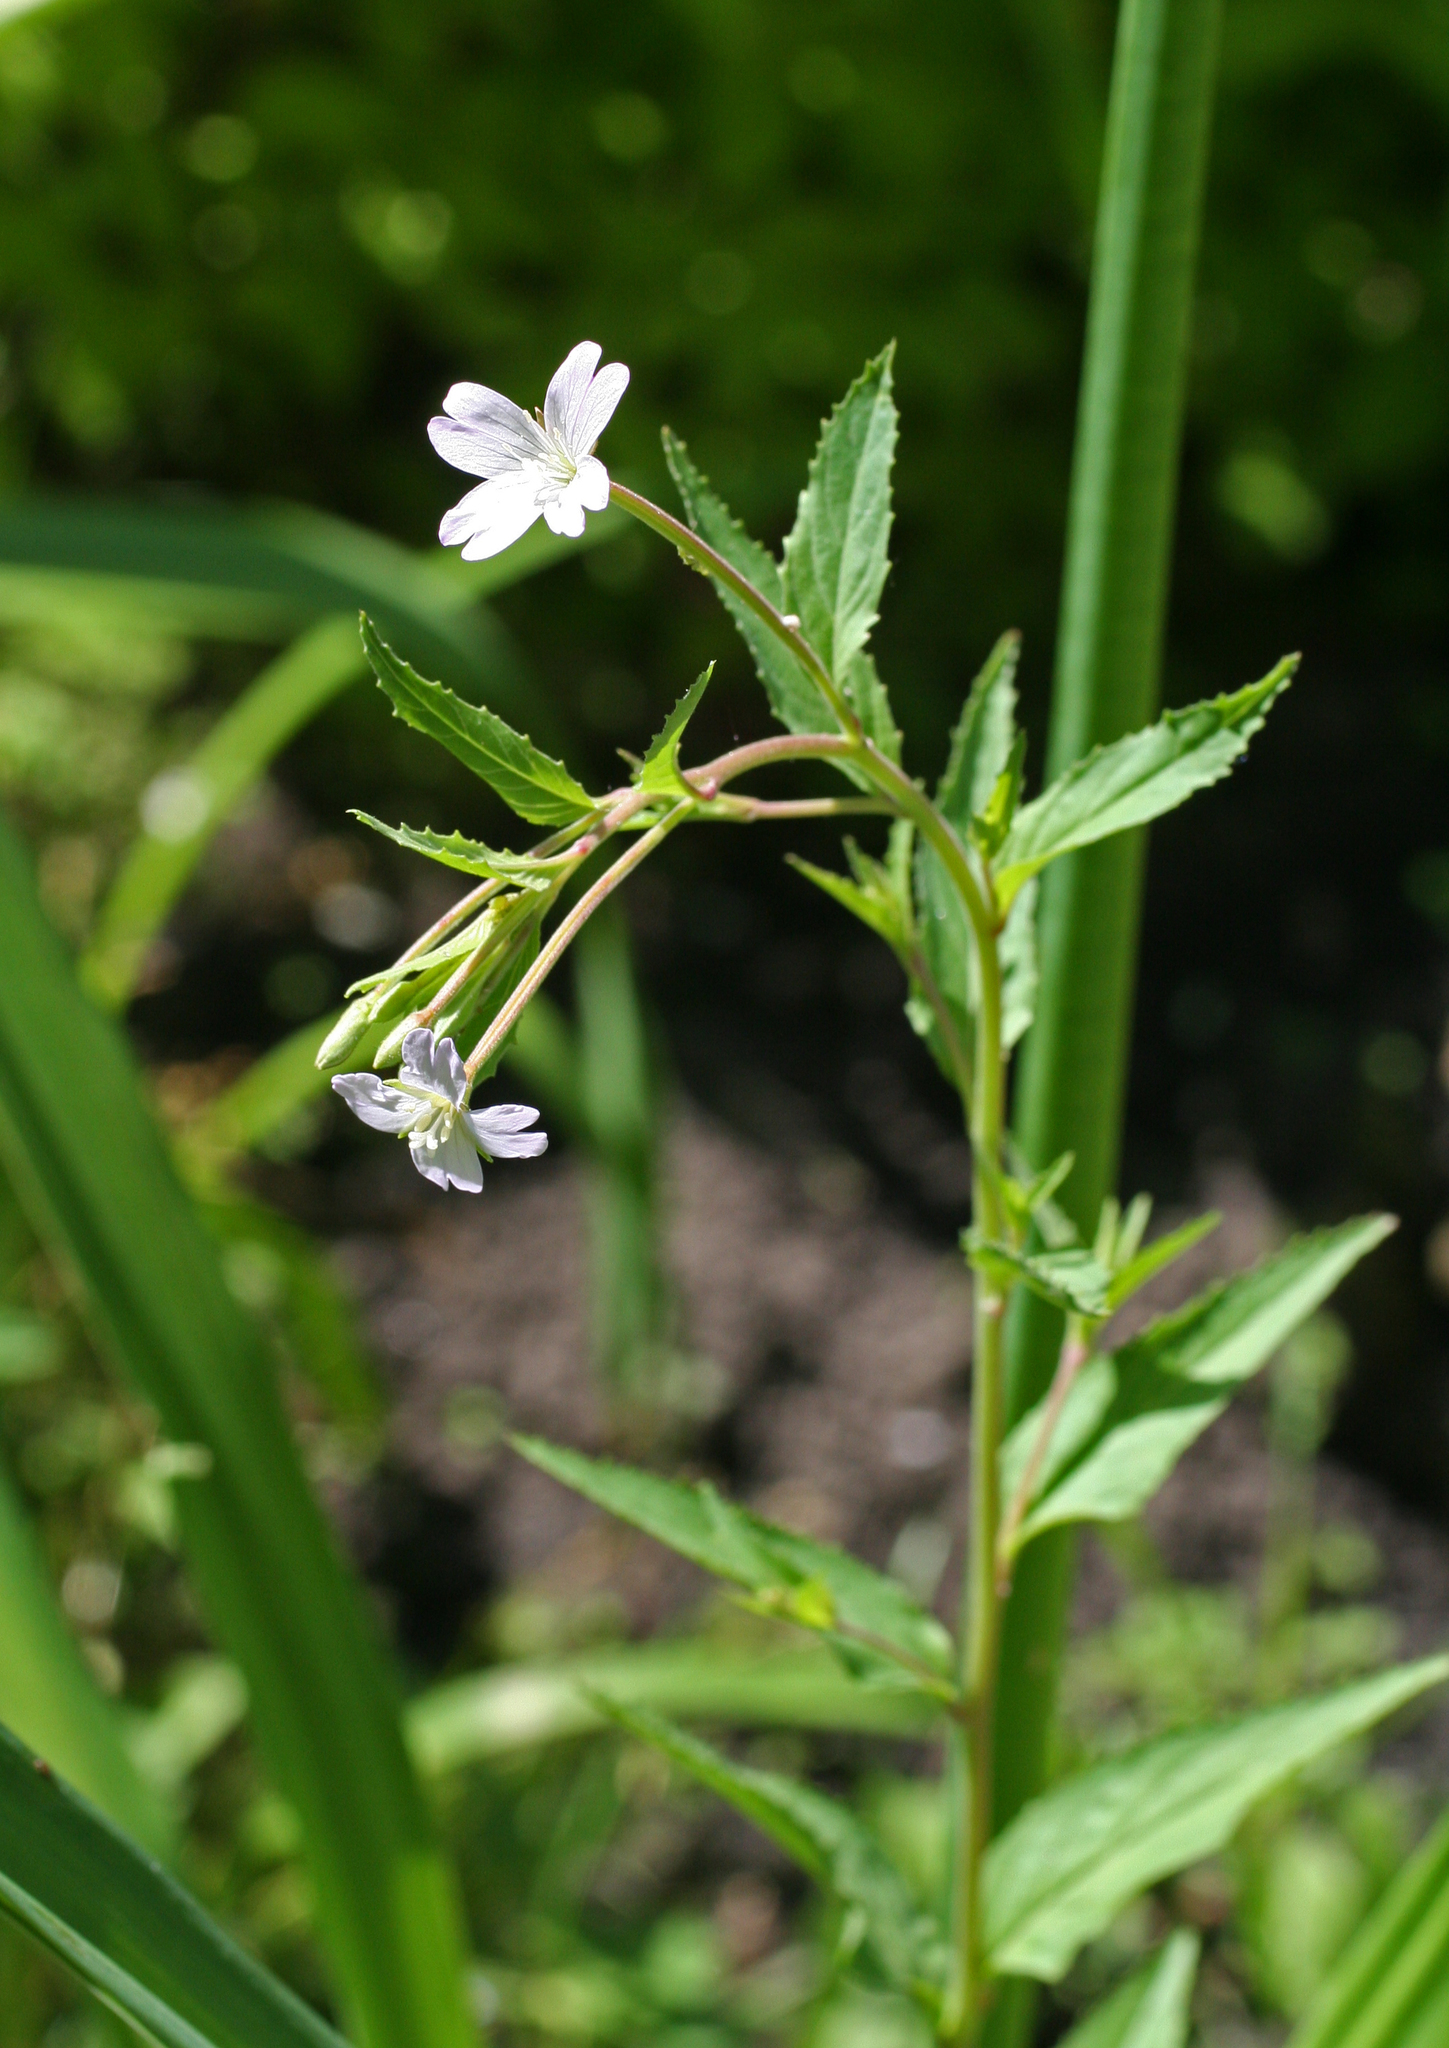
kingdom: Plantae
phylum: Tracheophyta
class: Magnoliopsida
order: Myrtales
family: Onagraceae
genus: Epilobium
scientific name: Epilobium montanum
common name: Broad-leaved willowherb
